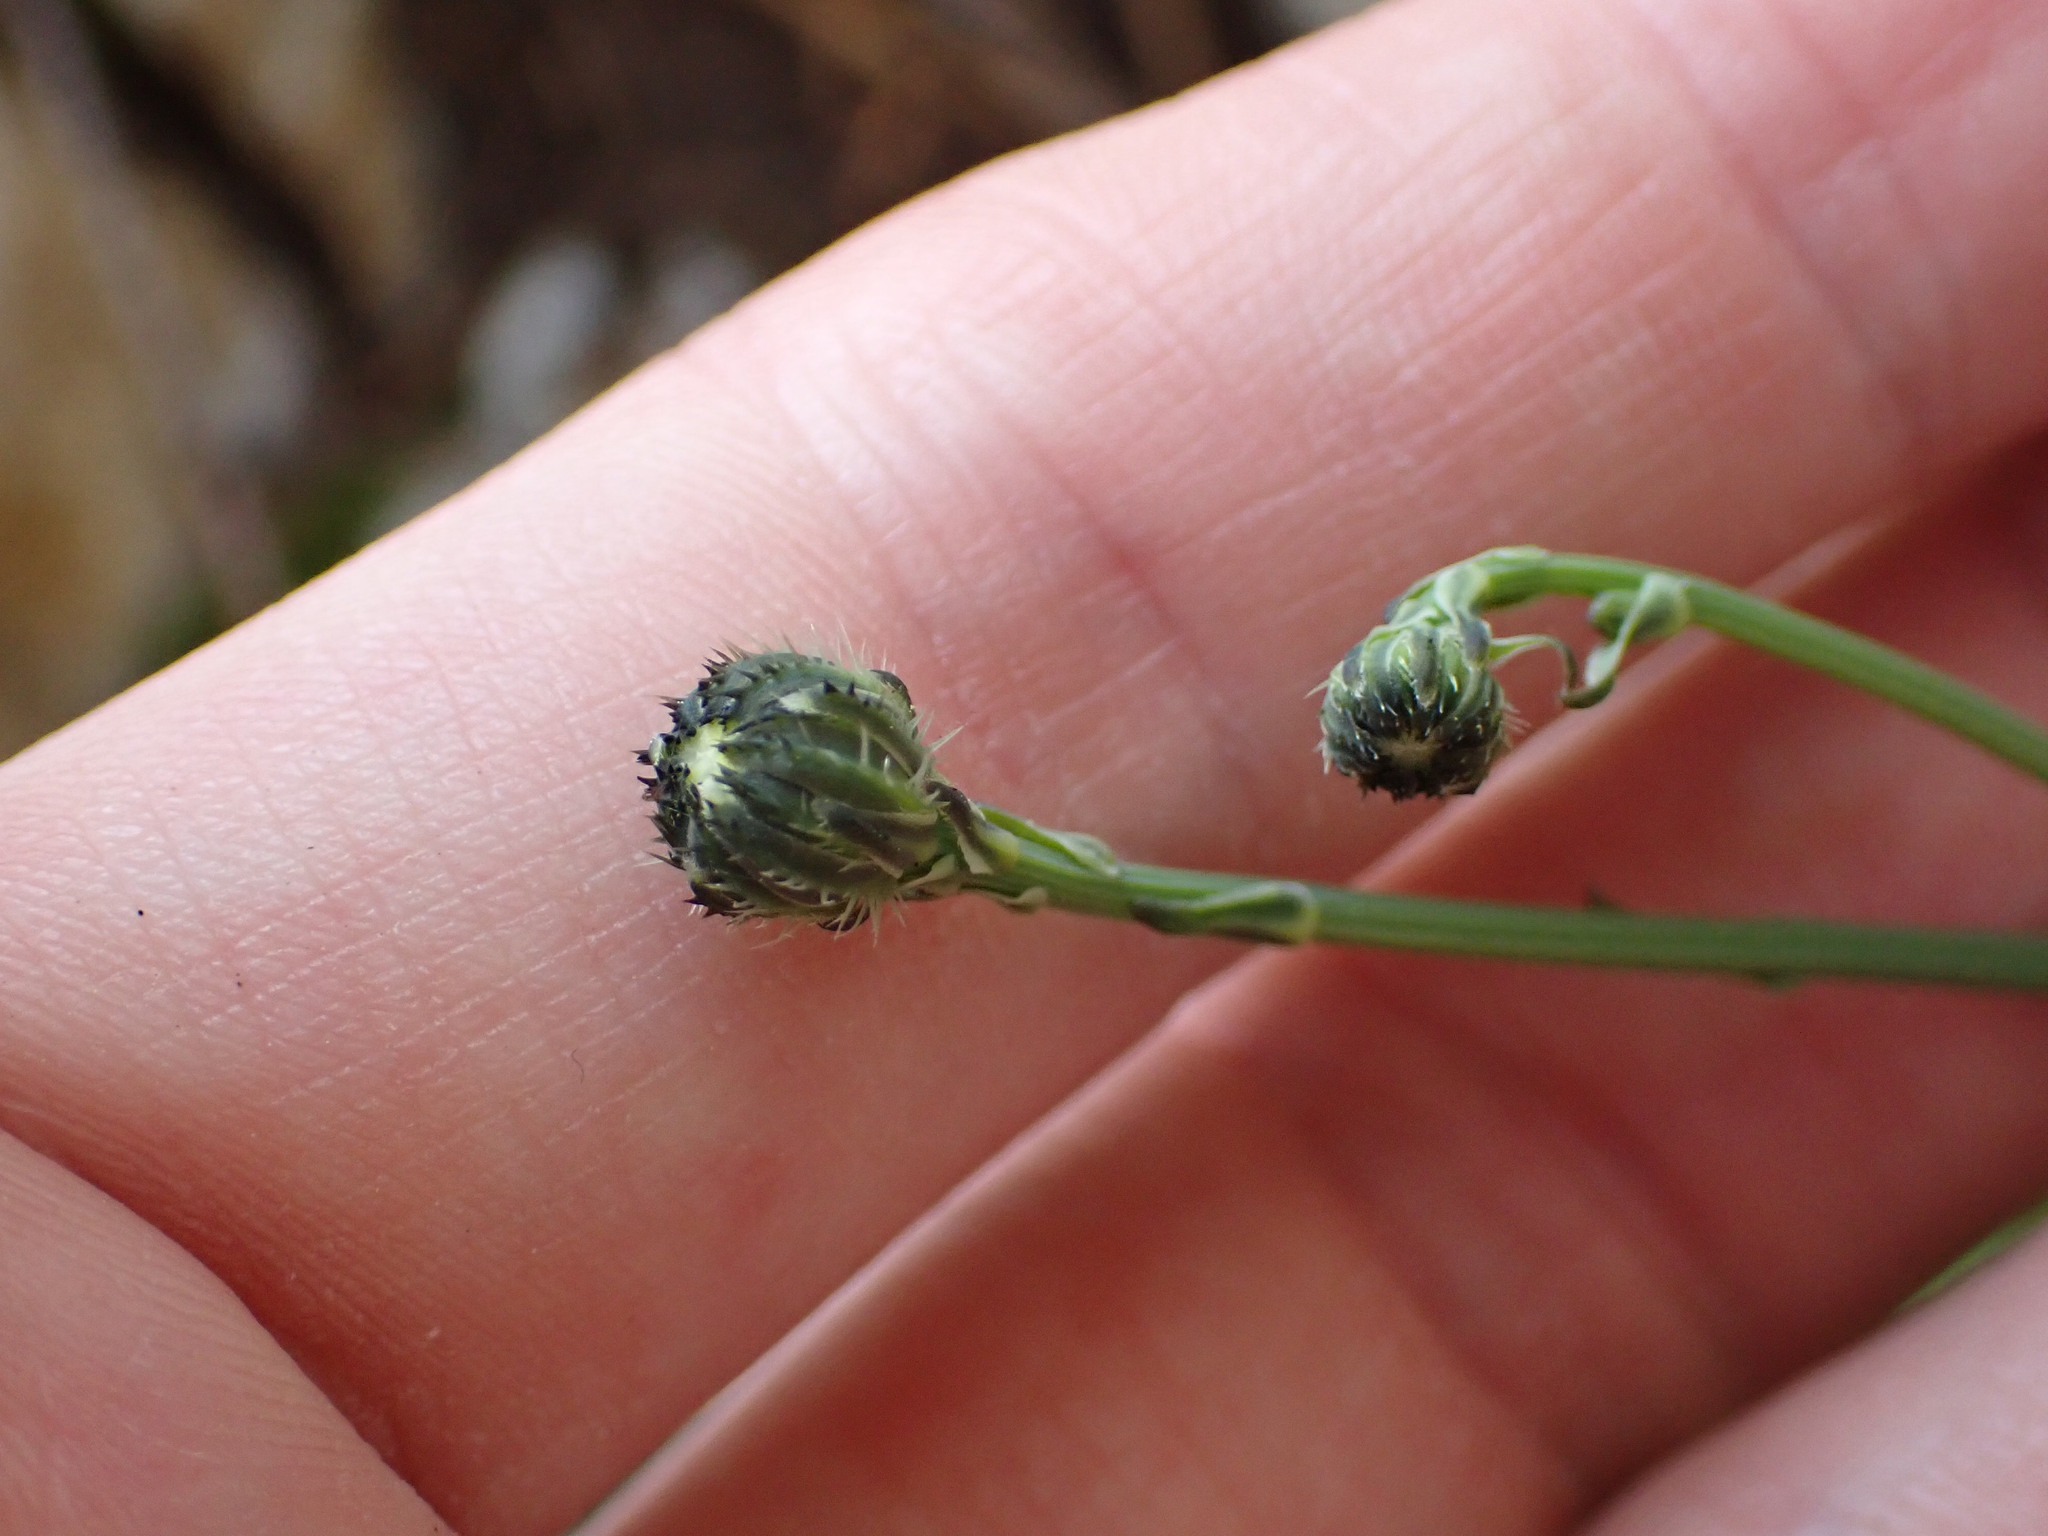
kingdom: Plantae
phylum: Tracheophyta
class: Magnoliopsida
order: Asterales
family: Asteraceae
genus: Hypochaeris
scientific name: Hypochaeris radicata
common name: Flatweed
